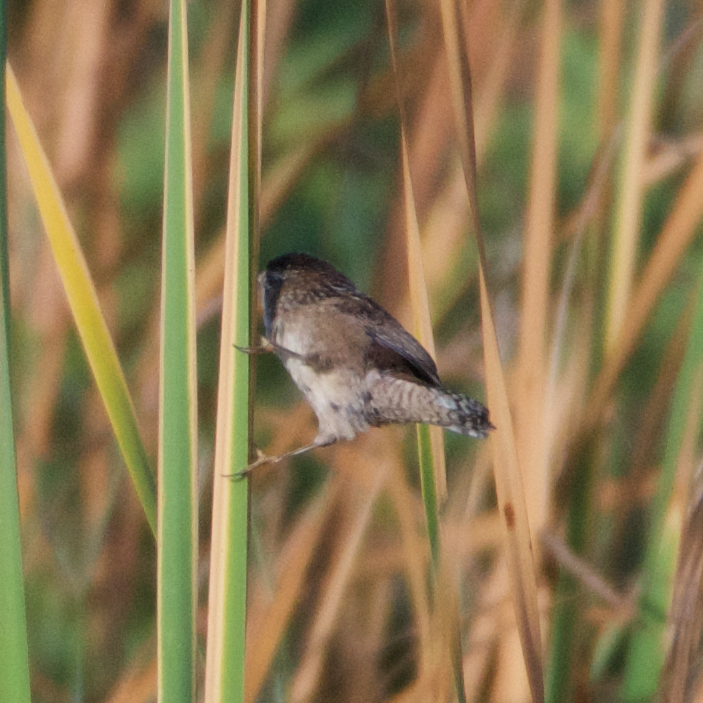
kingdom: Animalia
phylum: Chordata
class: Aves
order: Passeriformes
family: Troglodytidae
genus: Cistothorus
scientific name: Cistothorus palustris
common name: Marsh wren
